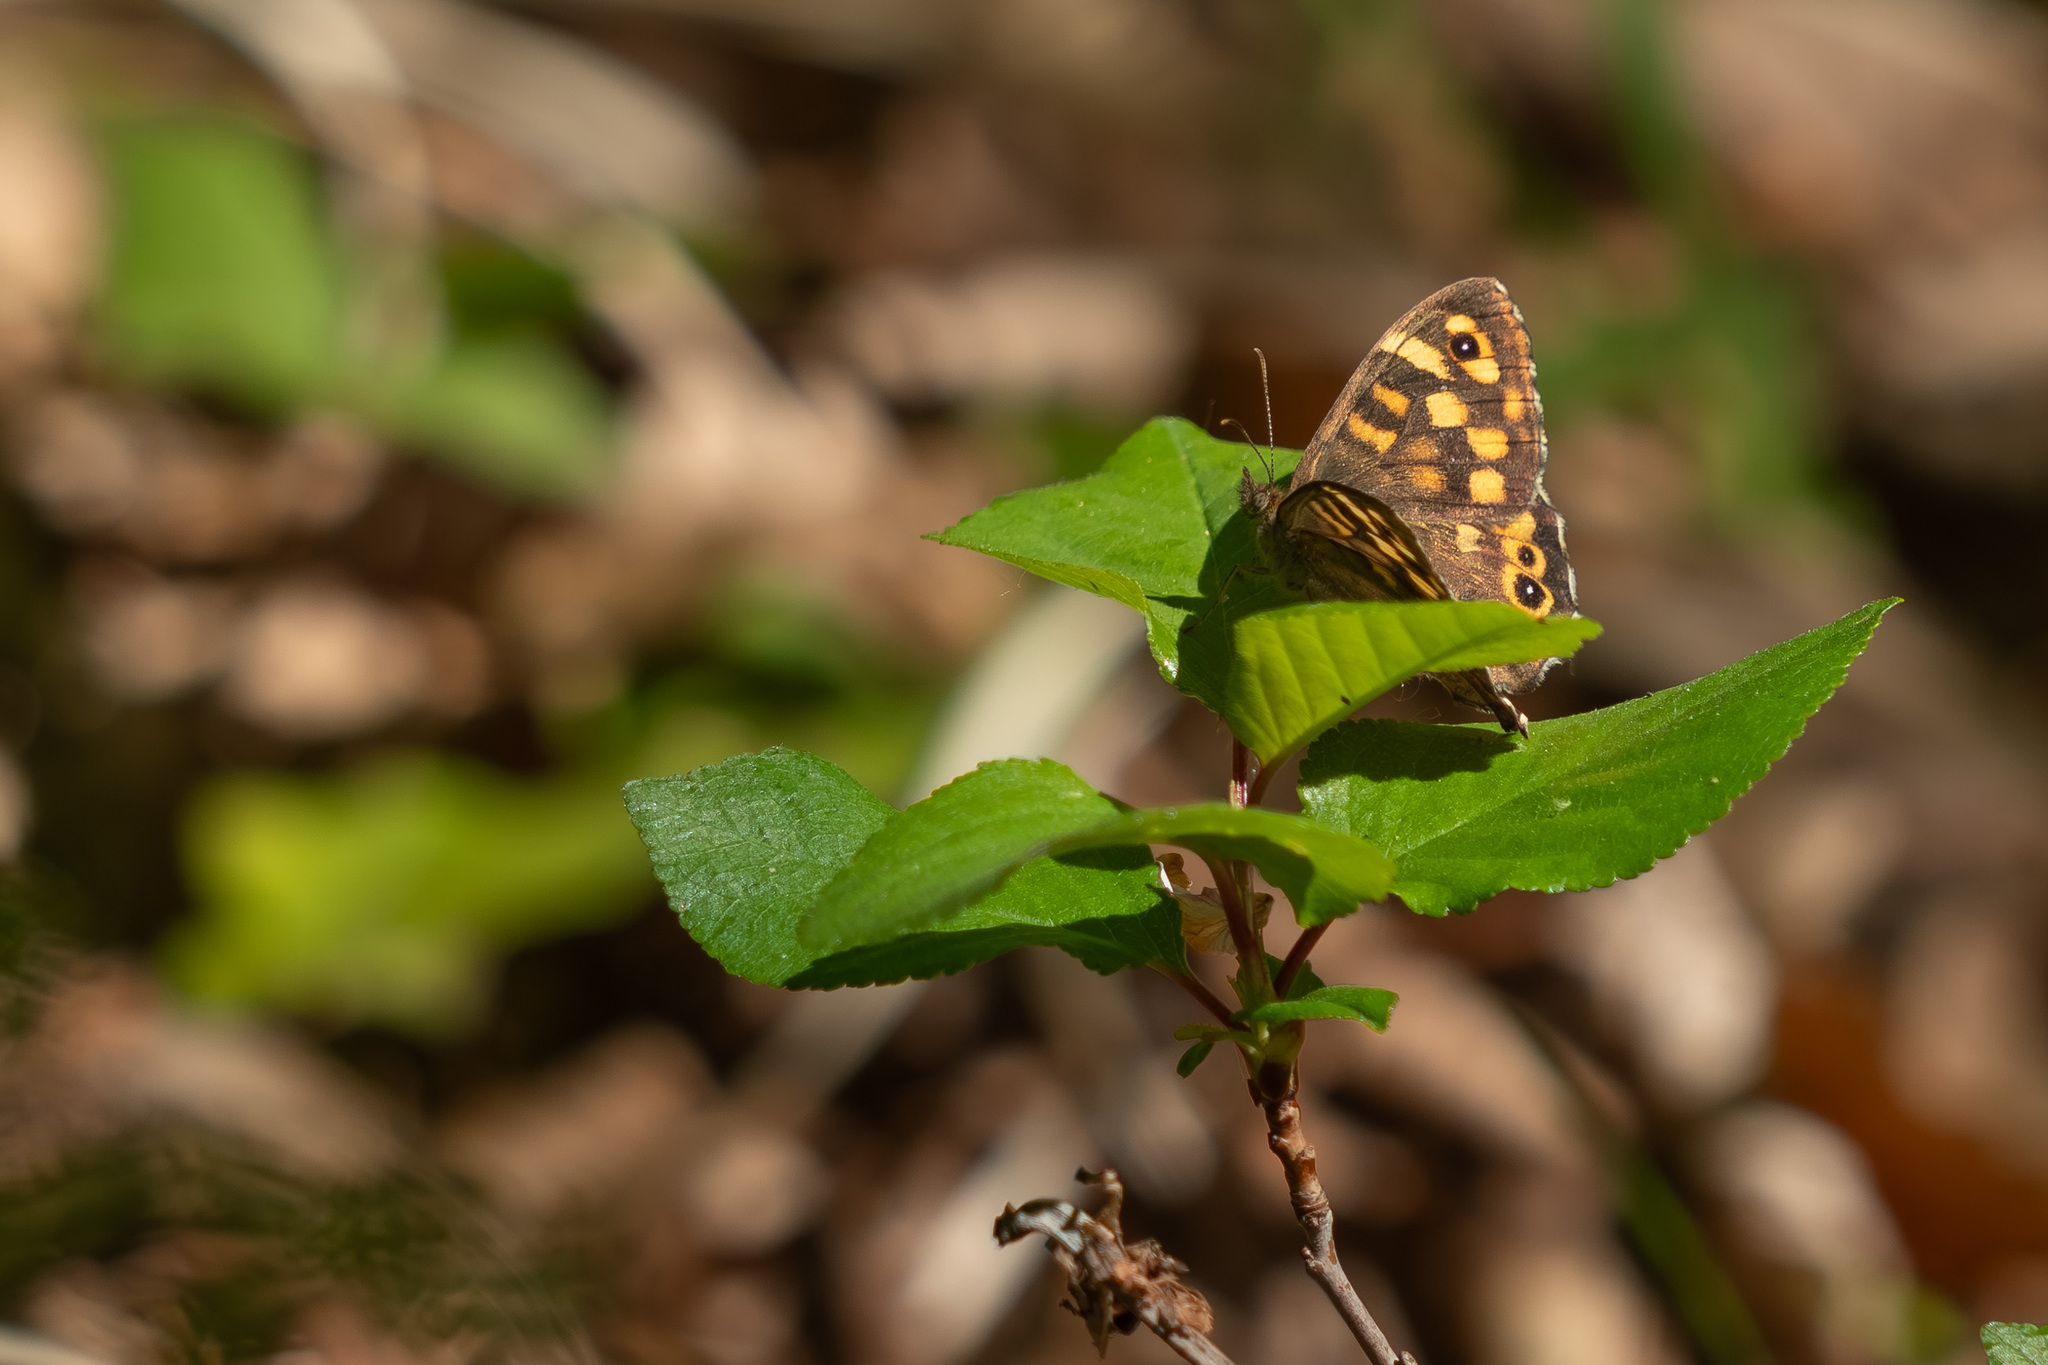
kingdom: Animalia
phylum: Arthropoda
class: Insecta
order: Lepidoptera
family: Nymphalidae
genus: Pararge
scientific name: Pararge aegeria
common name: Speckled wood
